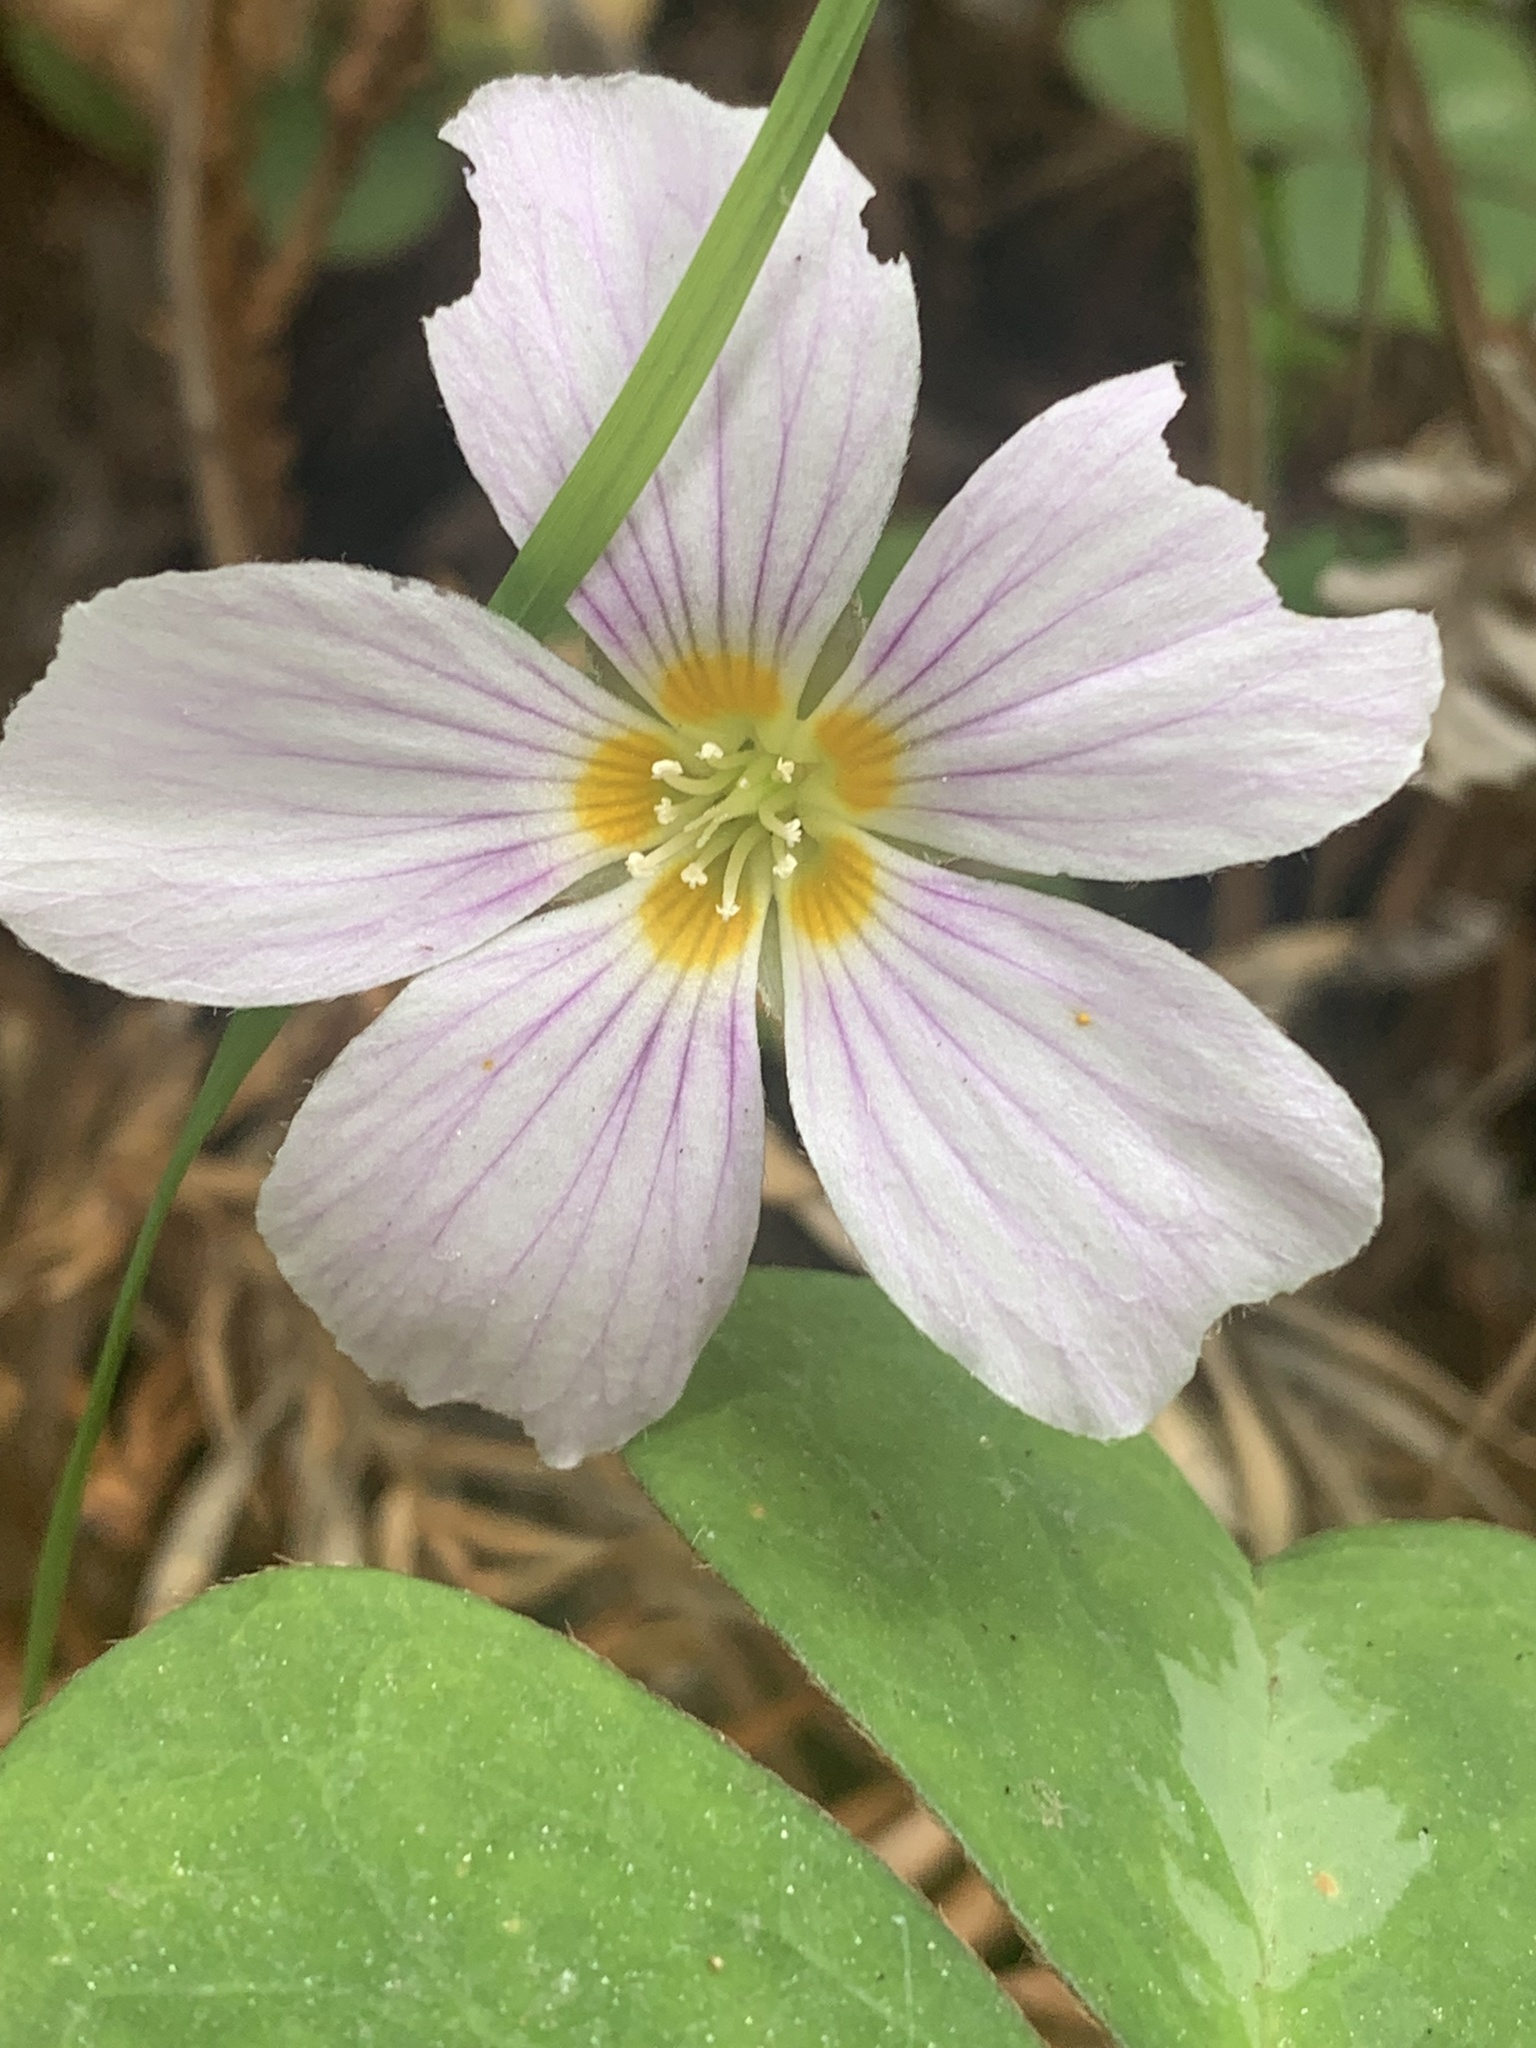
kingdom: Plantae
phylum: Tracheophyta
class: Magnoliopsida
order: Oxalidales
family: Oxalidaceae
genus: Oxalis
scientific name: Oxalis oregana
